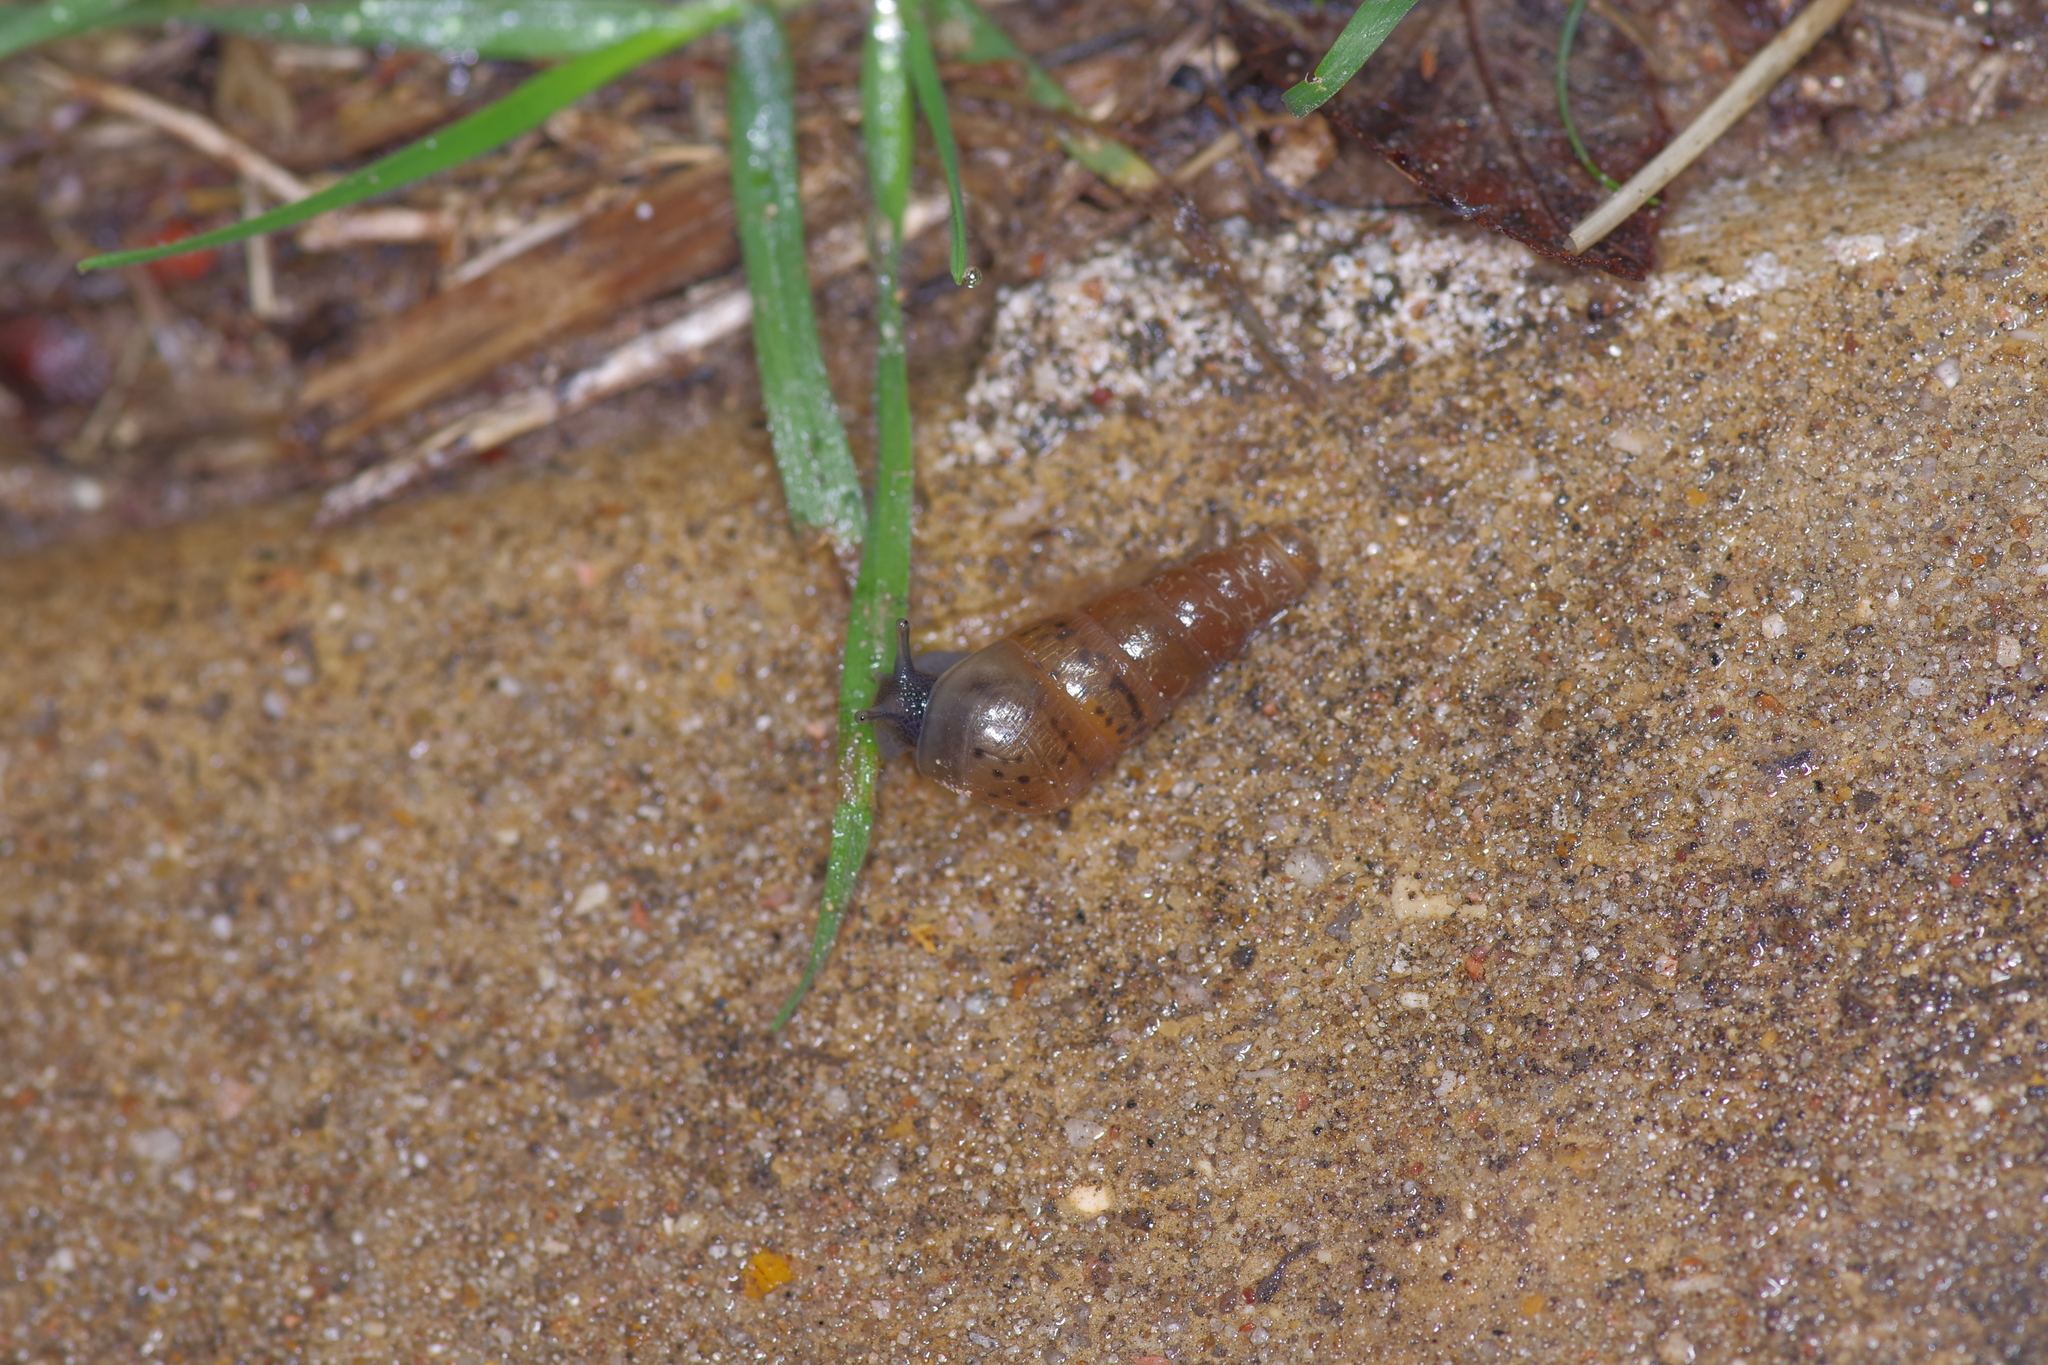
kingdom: Animalia
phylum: Mollusca
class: Gastropoda
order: Stylommatophora
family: Achatinidae
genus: Rumina
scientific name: Rumina decollata
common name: Decollate snail
